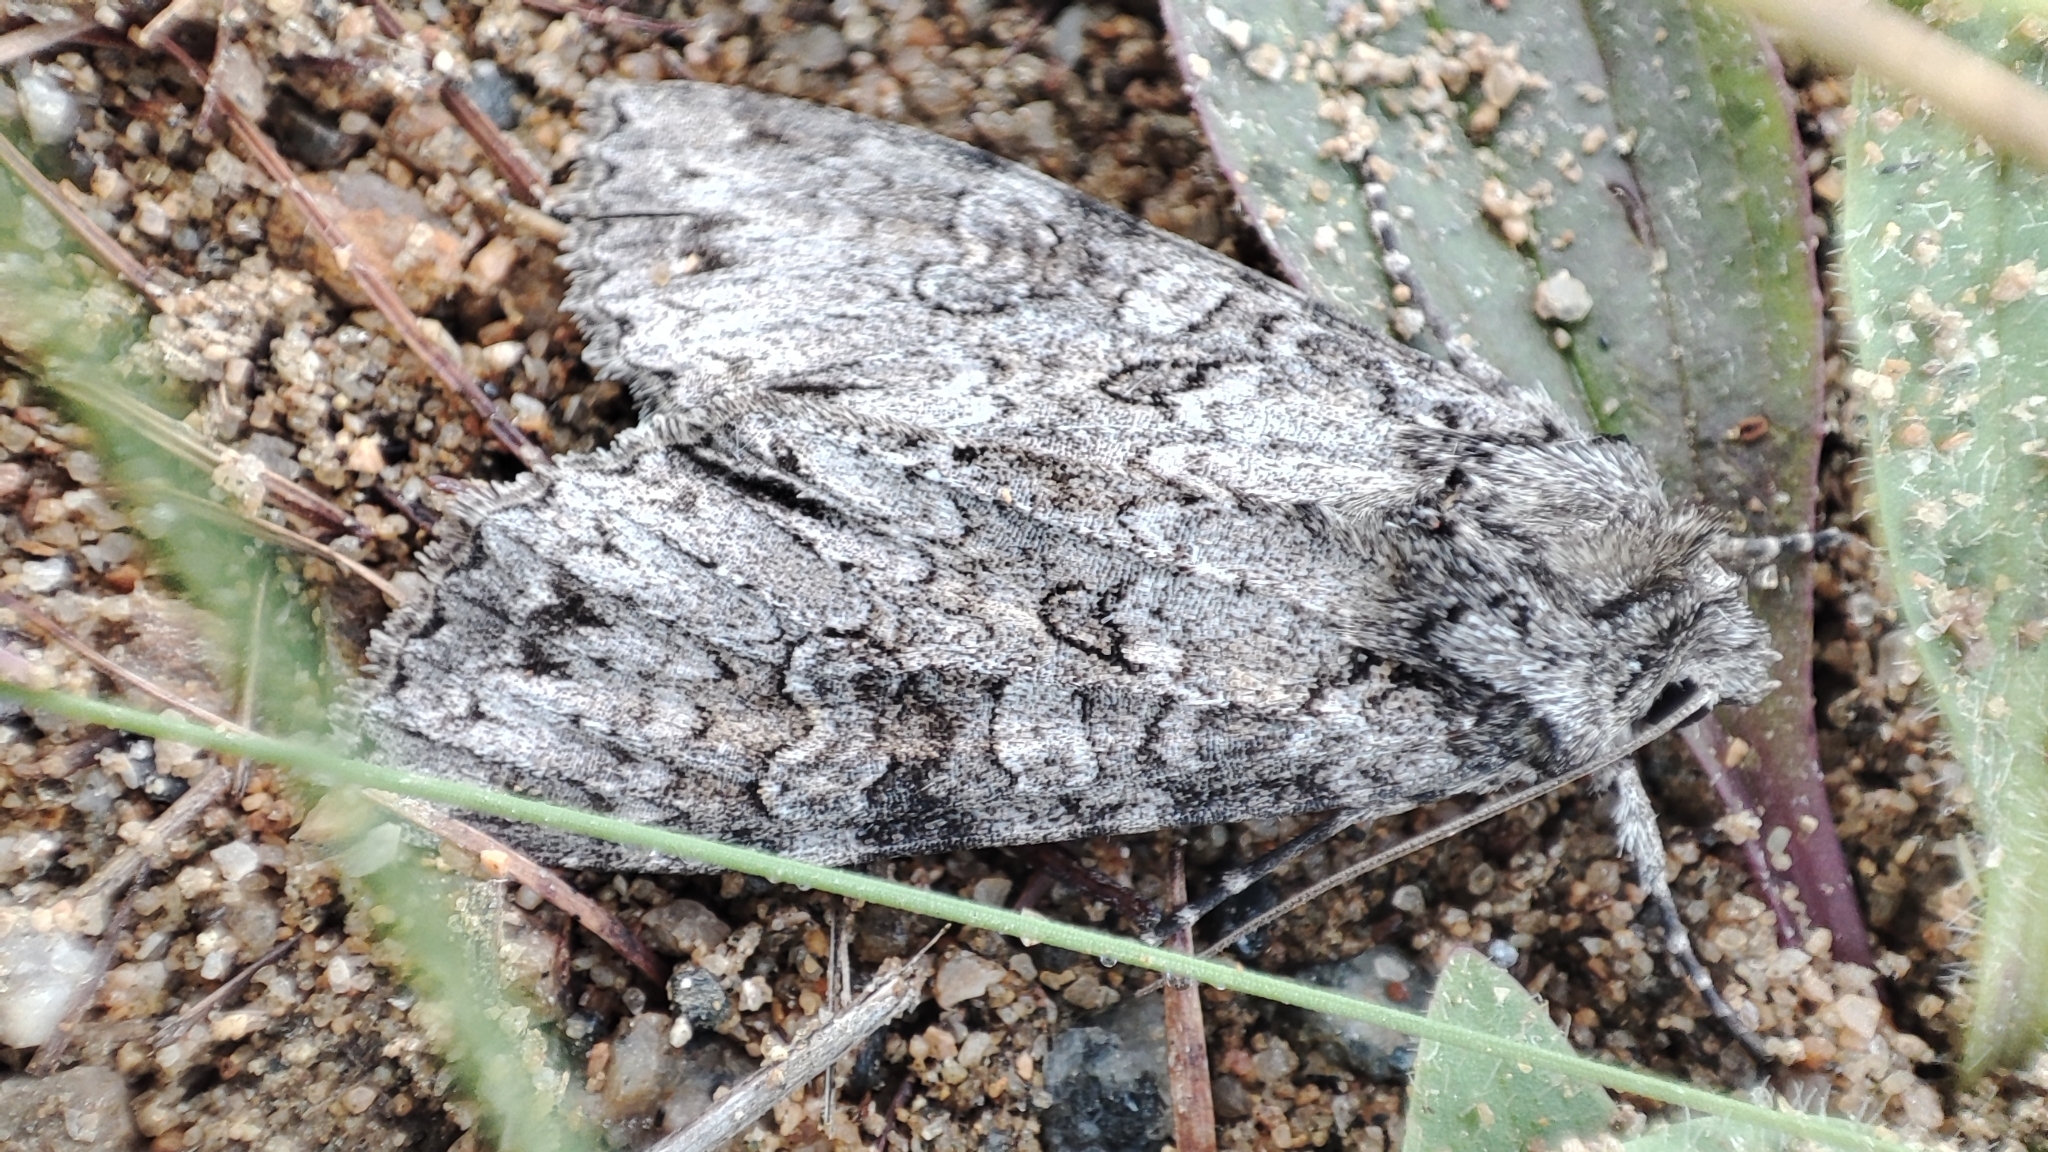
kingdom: Animalia
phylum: Arthropoda
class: Insecta
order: Lepidoptera
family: Noctuidae
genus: Polia
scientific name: Polia nebulosa
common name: Grey arches
